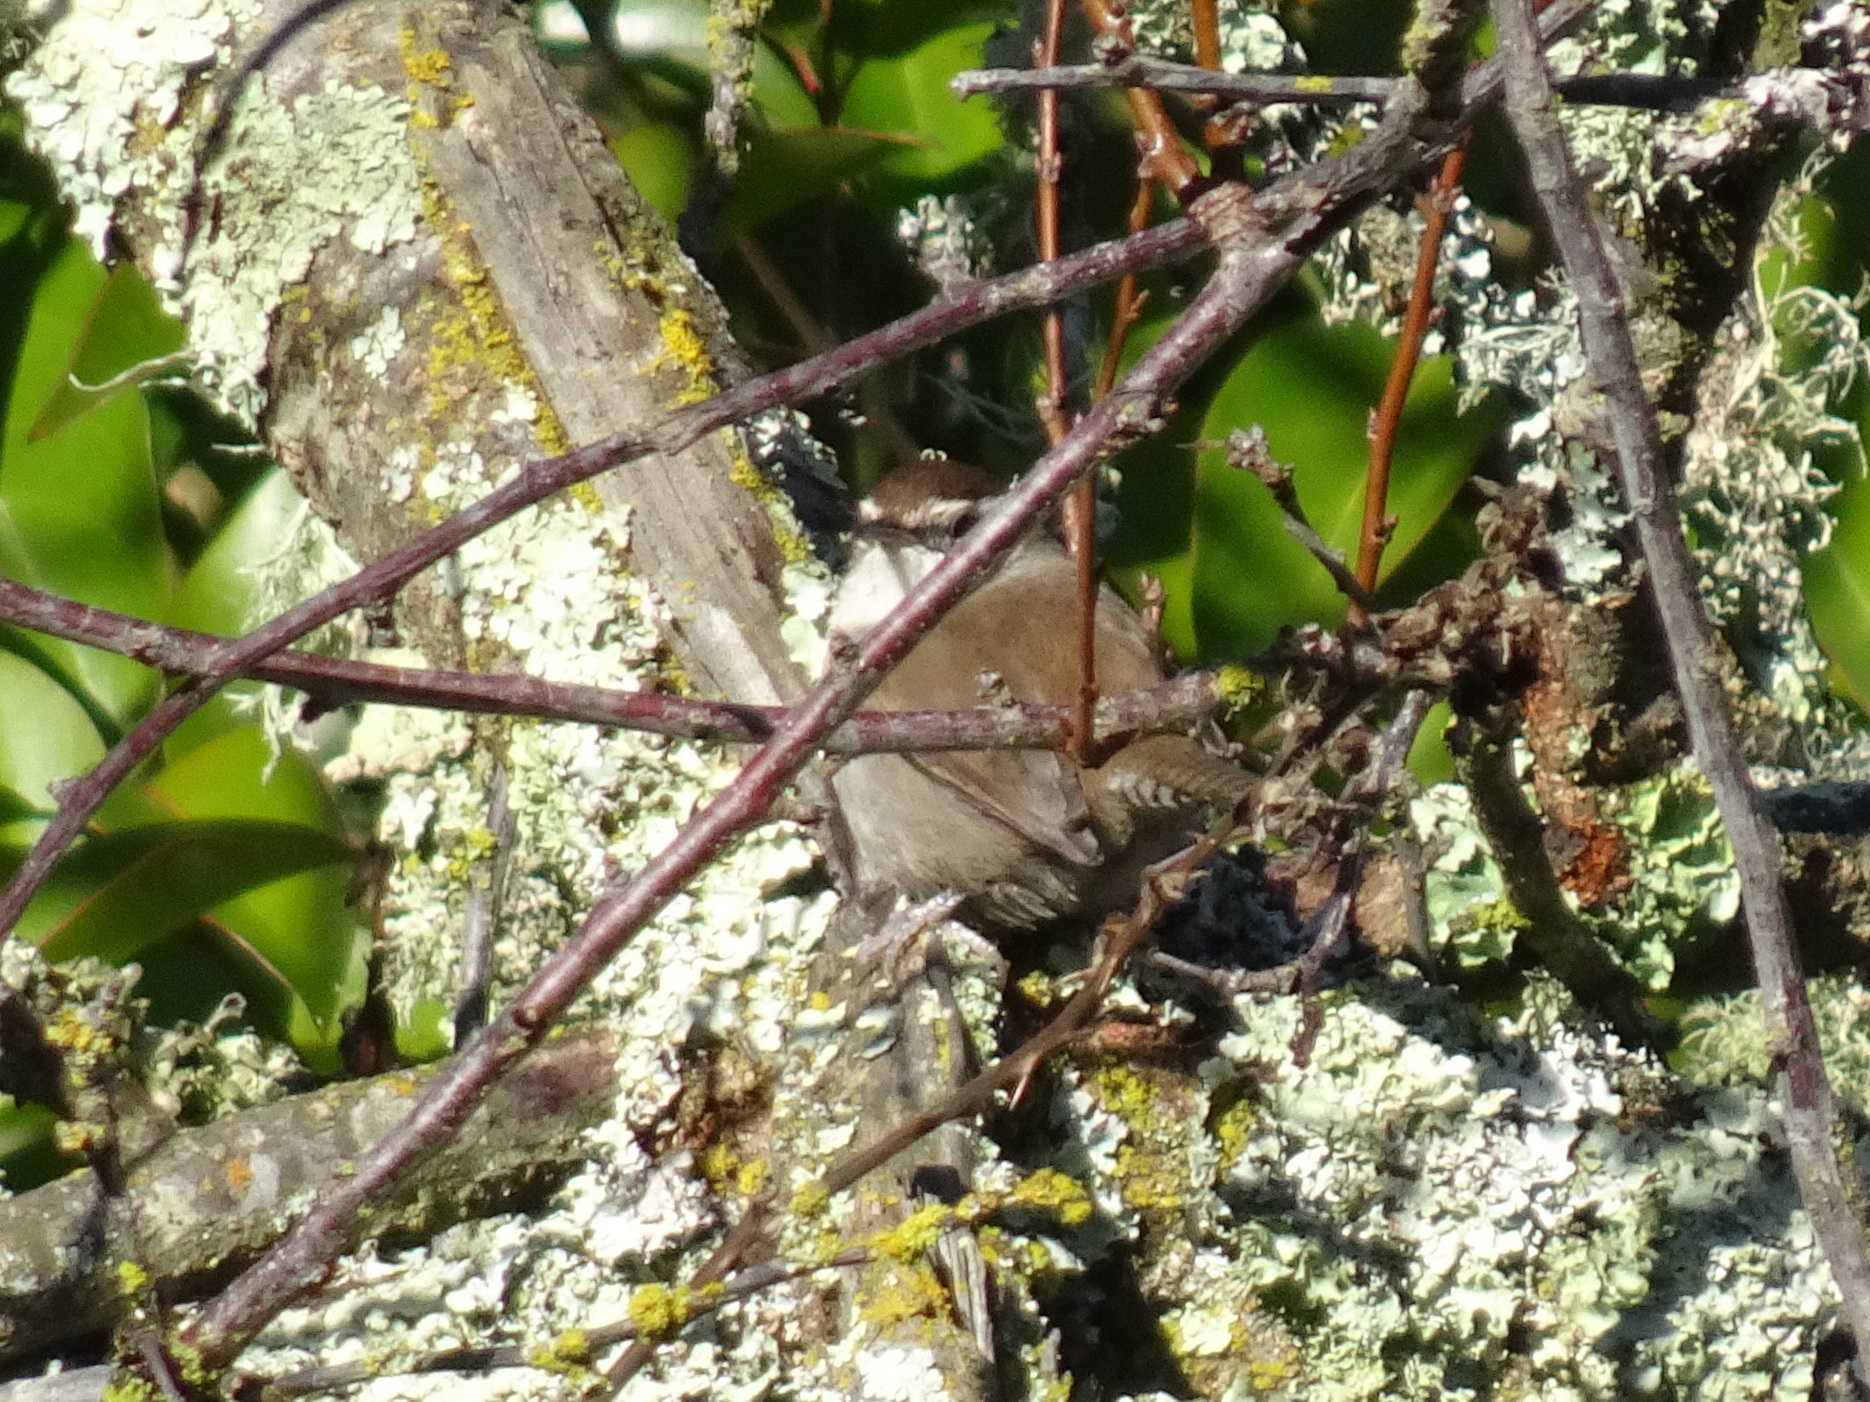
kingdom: Animalia
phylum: Chordata
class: Aves
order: Passeriformes
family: Troglodytidae
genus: Thryomanes
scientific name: Thryomanes bewickii
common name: Bewick's wren
